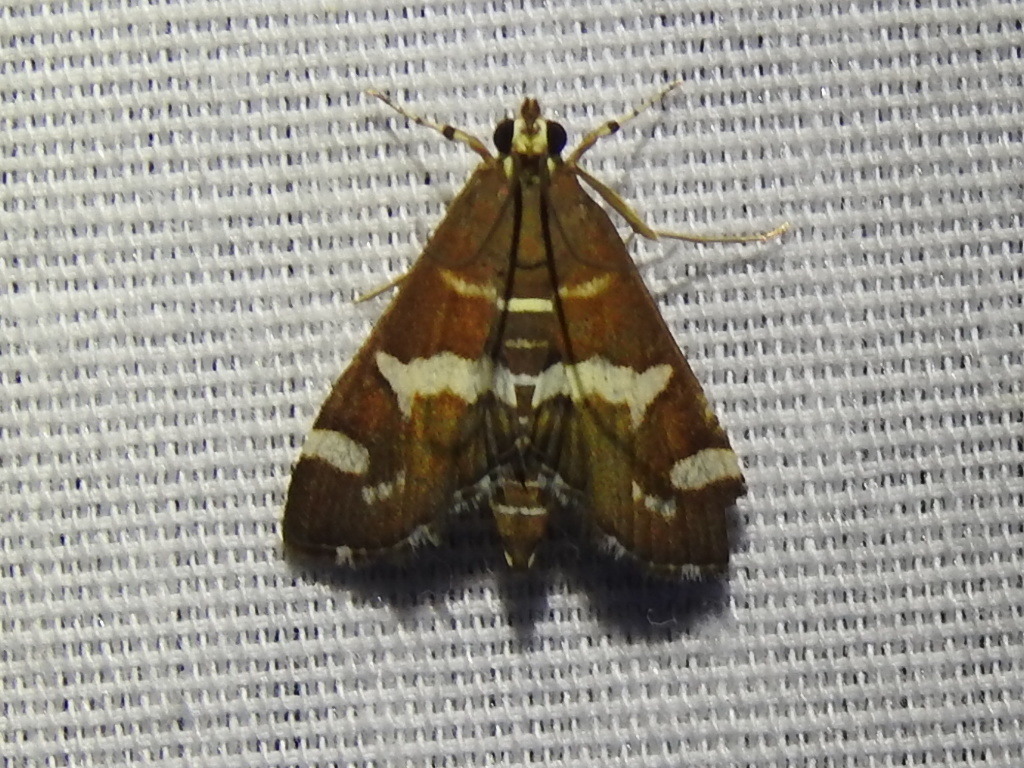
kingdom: Animalia
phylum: Arthropoda
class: Insecta
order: Lepidoptera
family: Crambidae
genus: Spoladea
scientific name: Spoladea recurvalis
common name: Beet webworm moth
